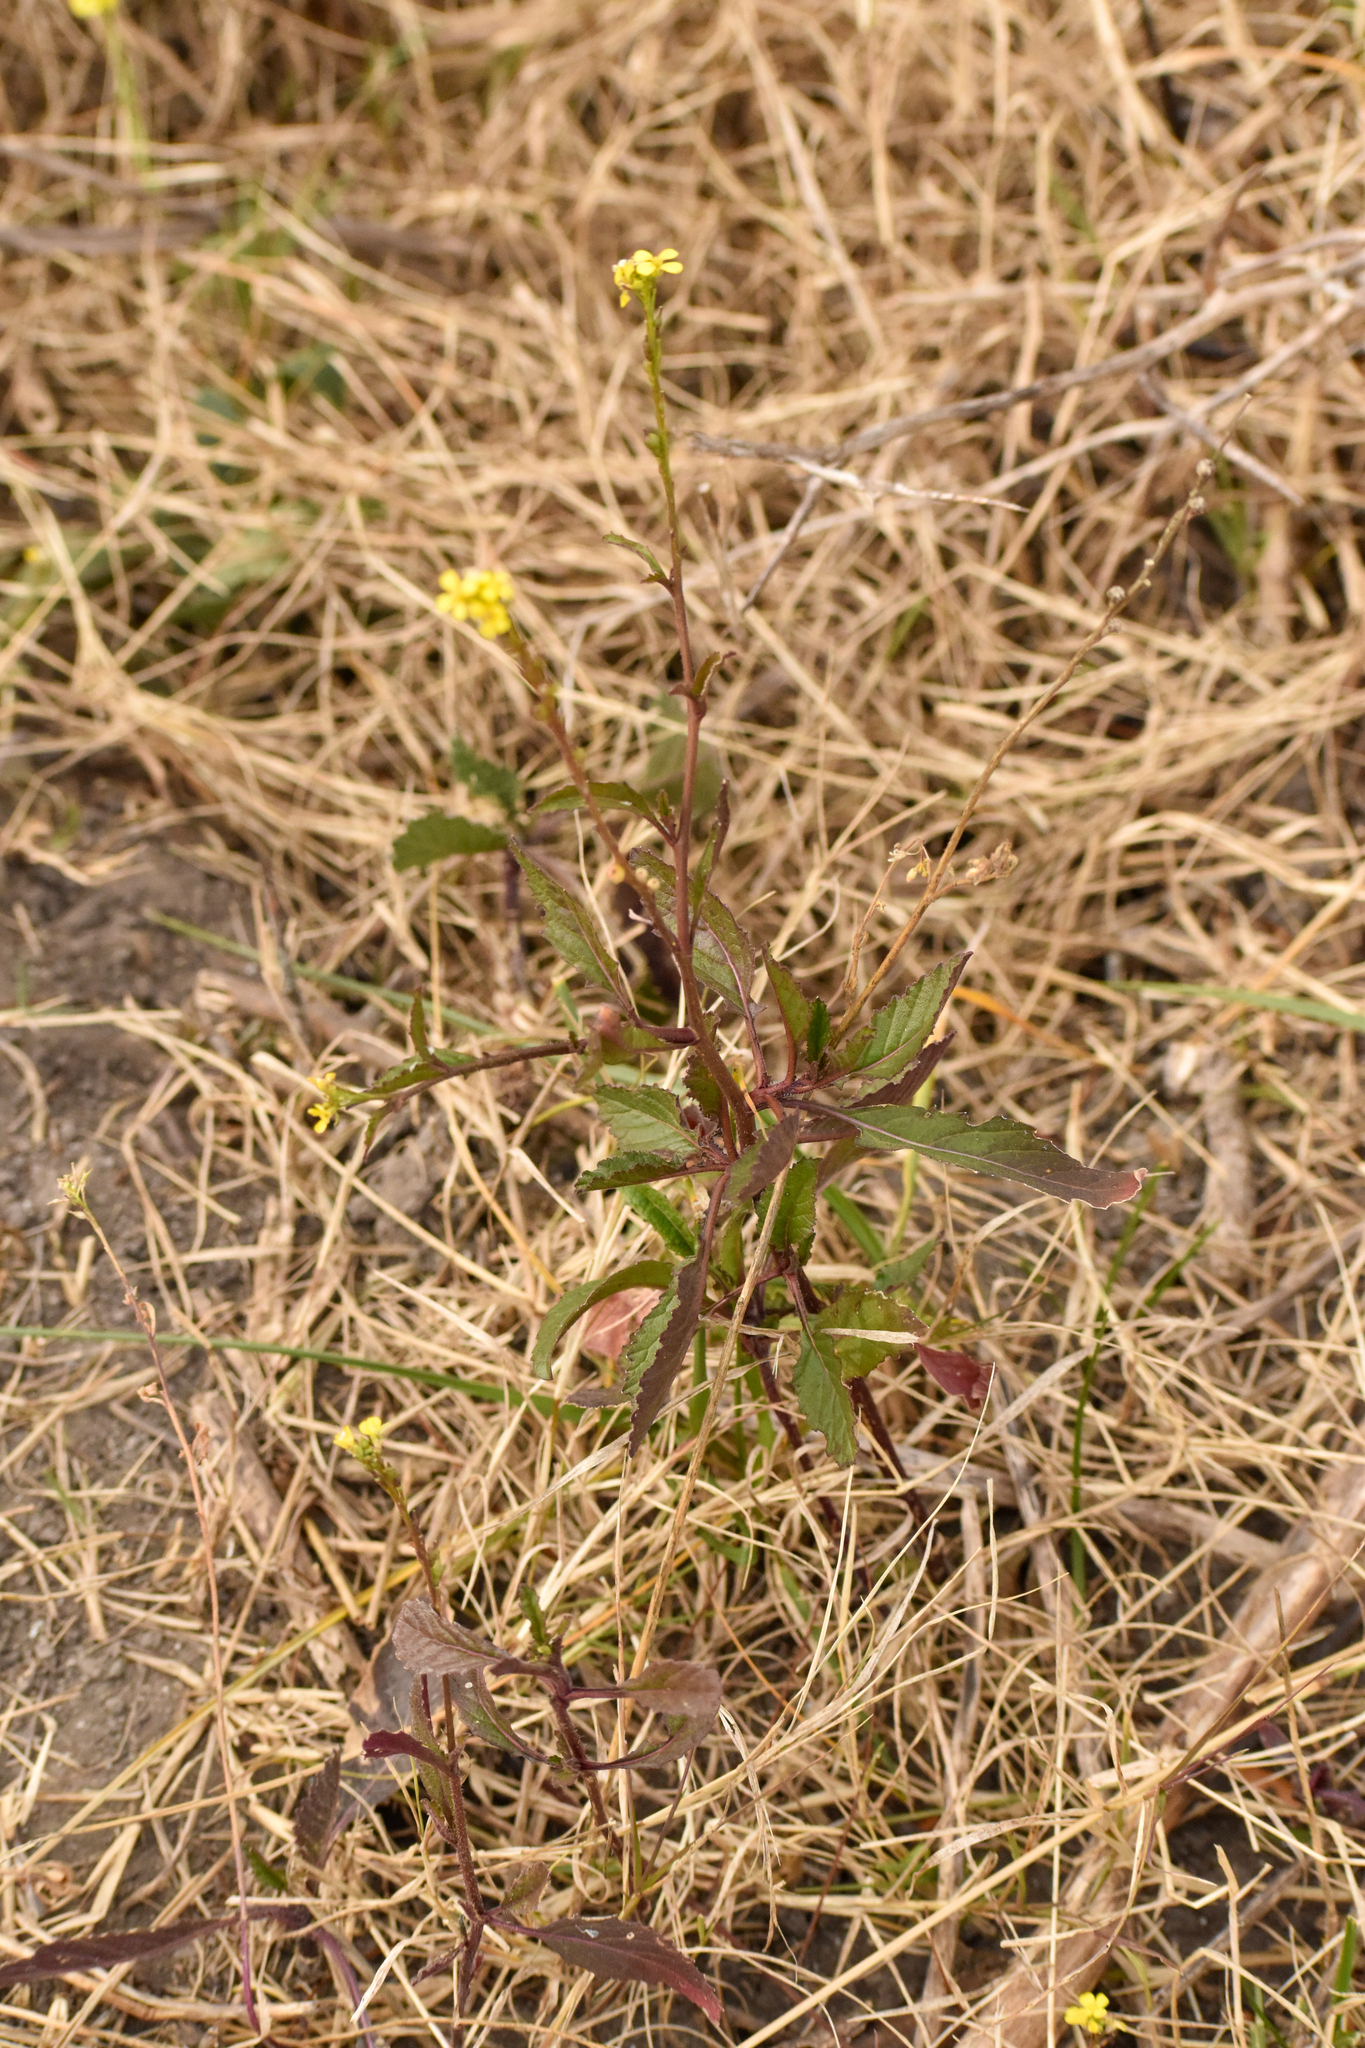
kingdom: Plantae
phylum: Tracheophyta
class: Magnoliopsida
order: Brassicales
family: Brassicaceae
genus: Rapistrum
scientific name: Rapistrum rugosum
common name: Annual bastardcabbage
